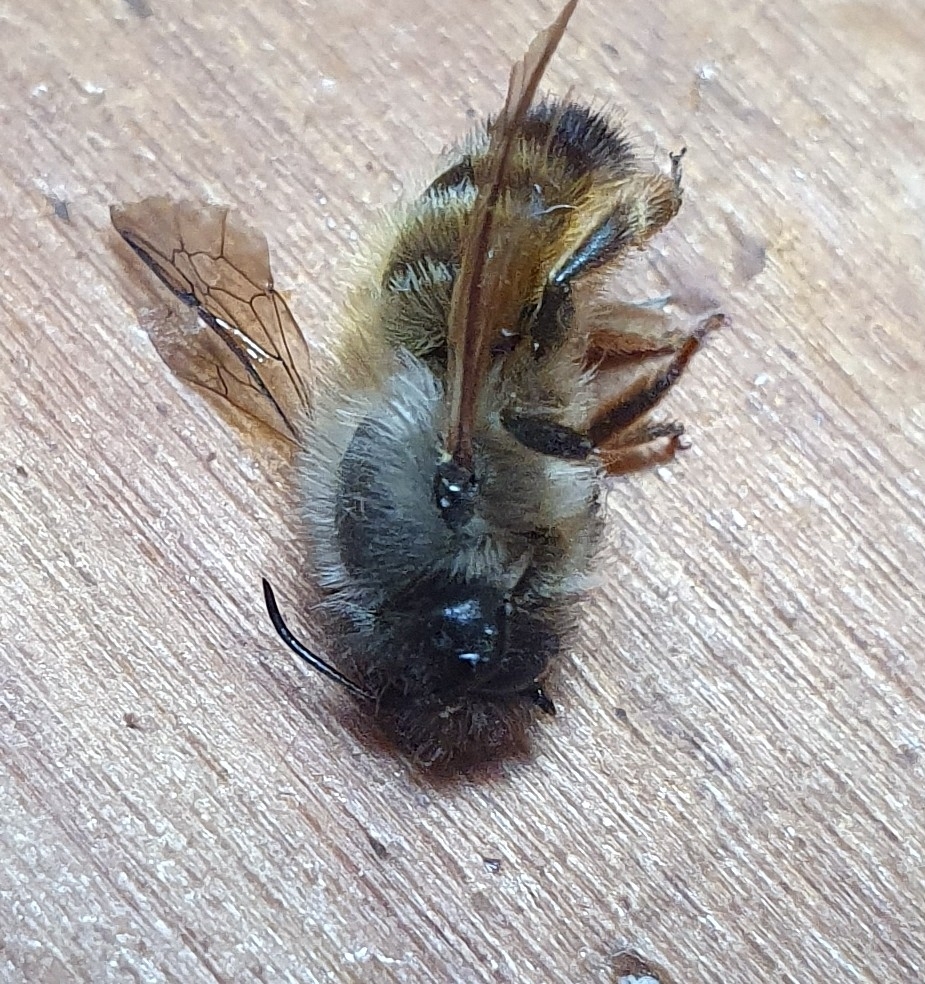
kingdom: Animalia
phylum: Arthropoda
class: Insecta
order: Hymenoptera
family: Megachilidae
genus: Osmia
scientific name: Osmia bicornis
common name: Red mason bee
